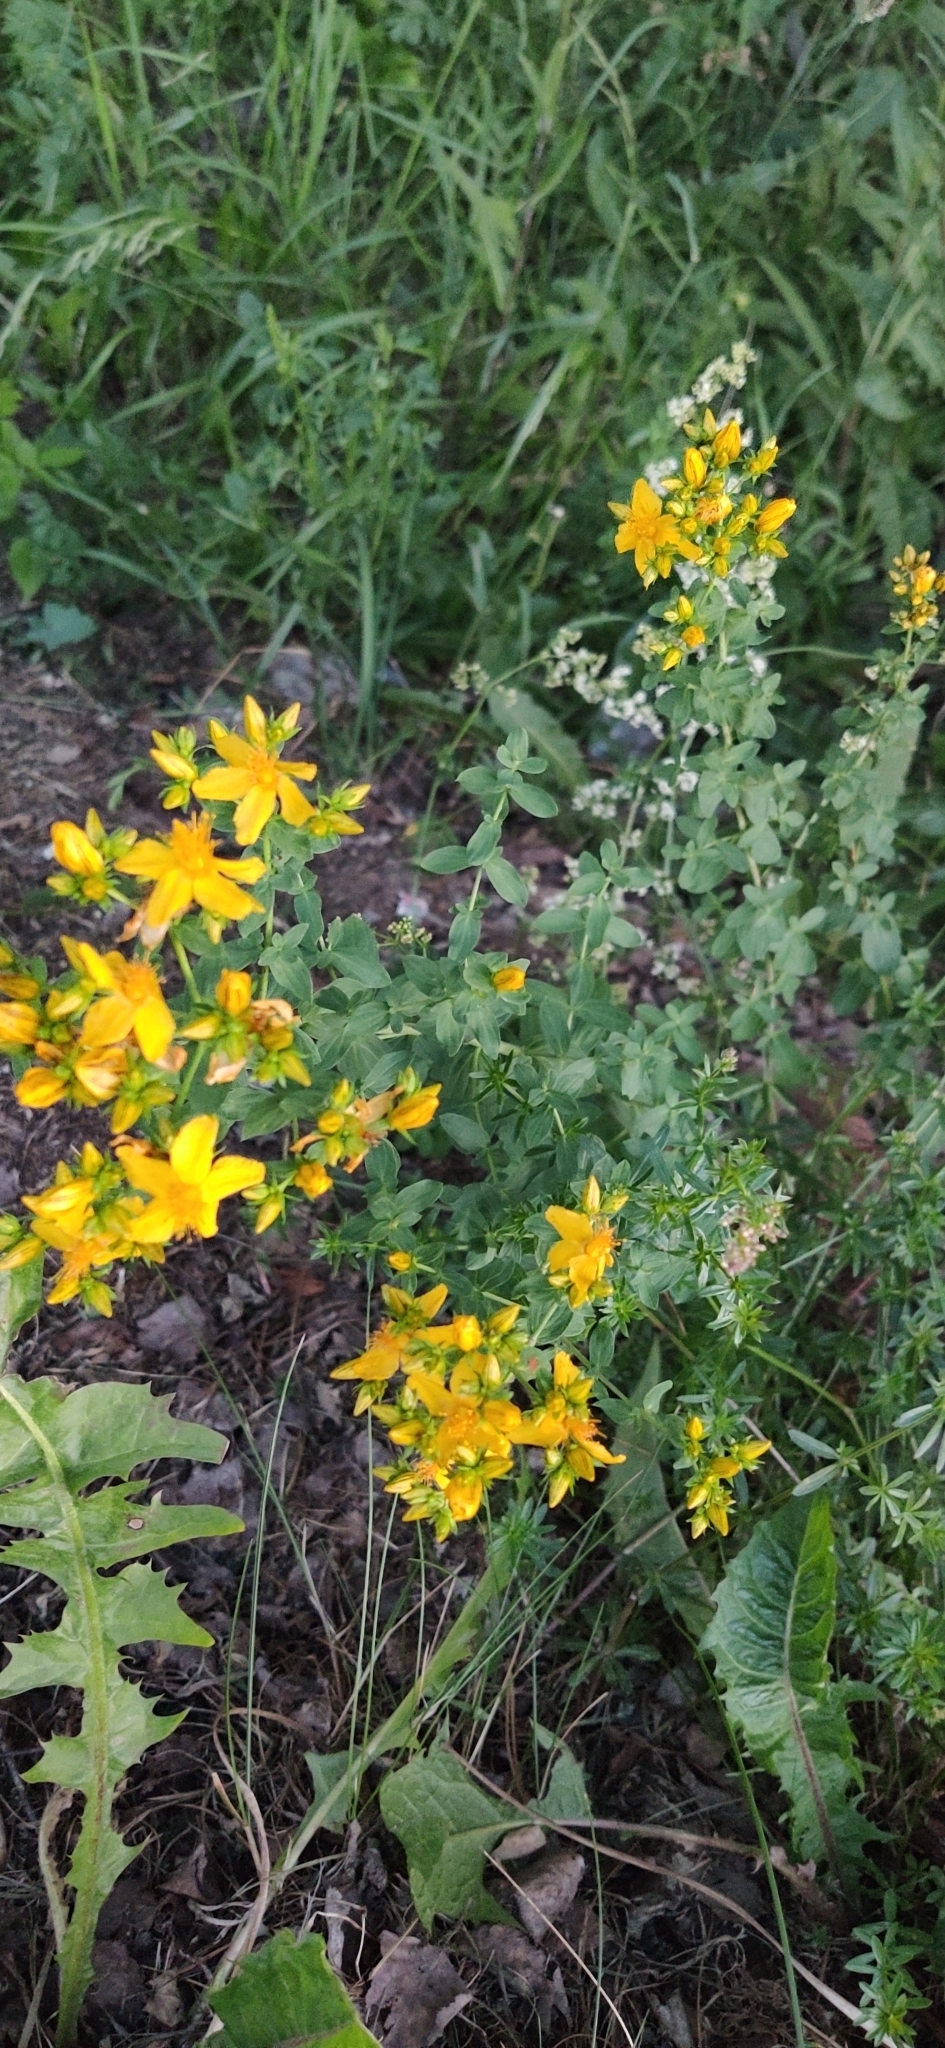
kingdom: Plantae
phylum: Tracheophyta
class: Magnoliopsida
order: Malpighiales
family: Hypericaceae
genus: Hypericum
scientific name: Hypericum perforatum
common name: Common st. johnswort
